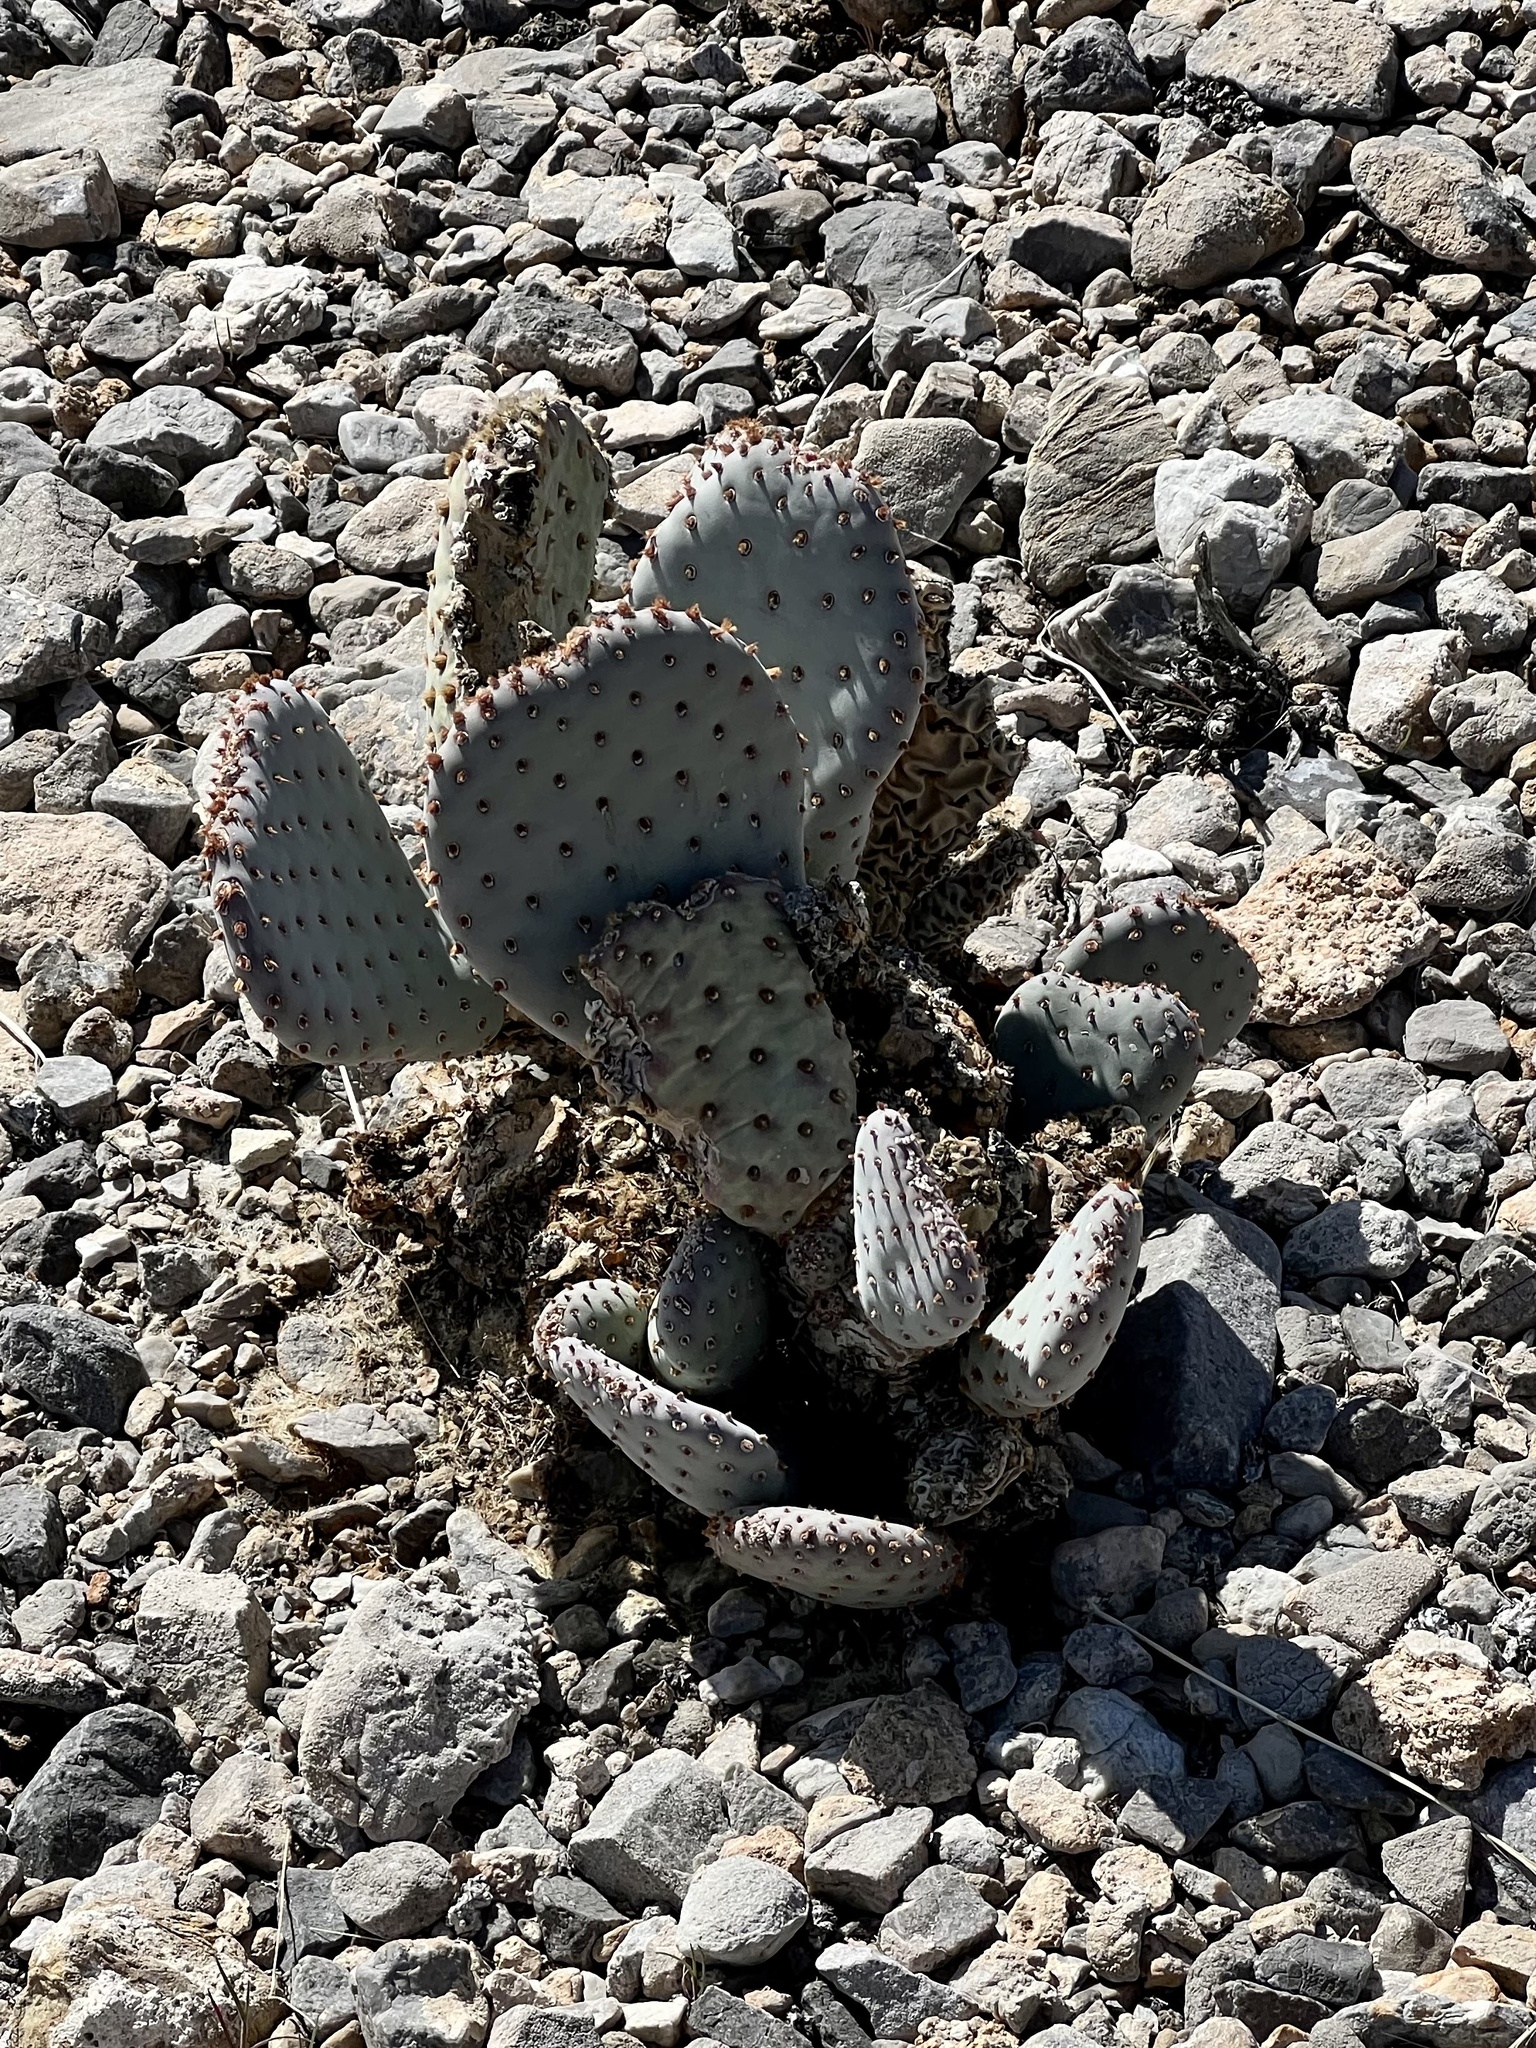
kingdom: Plantae
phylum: Tracheophyta
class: Magnoliopsida
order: Caryophyllales
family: Cactaceae
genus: Opuntia
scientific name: Opuntia basilaris
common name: Beavertail prickly-pear
